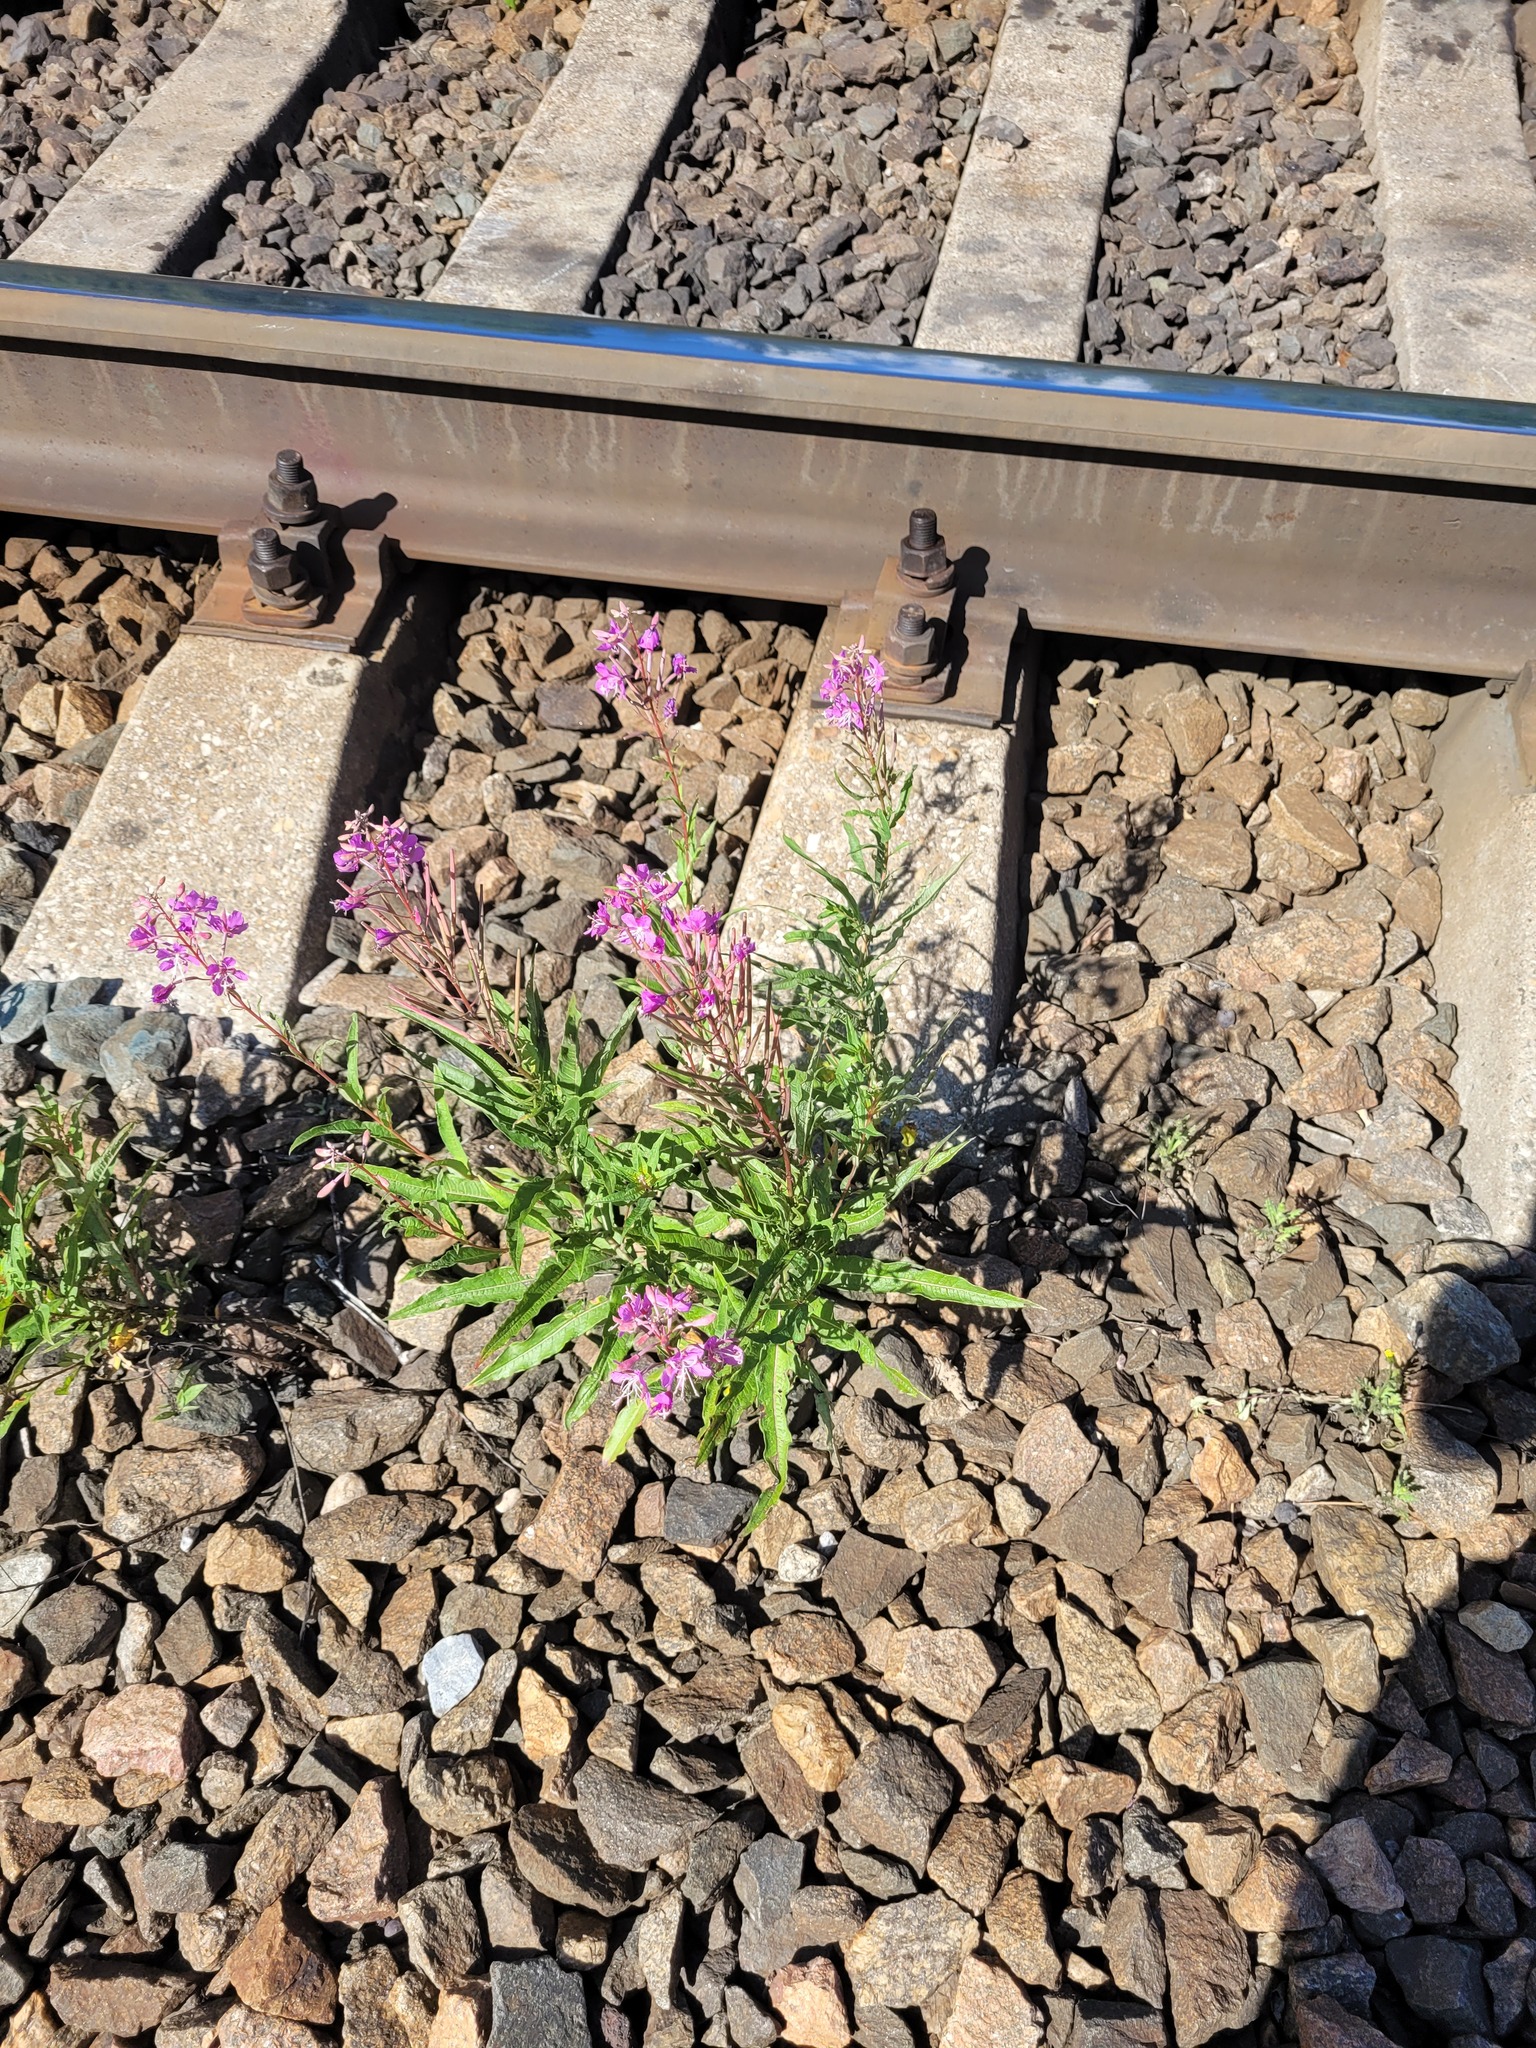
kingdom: Plantae
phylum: Tracheophyta
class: Magnoliopsida
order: Myrtales
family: Onagraceae
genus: Chamaenerion
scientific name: Chamaenerion angustifolium
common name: Fireweed
